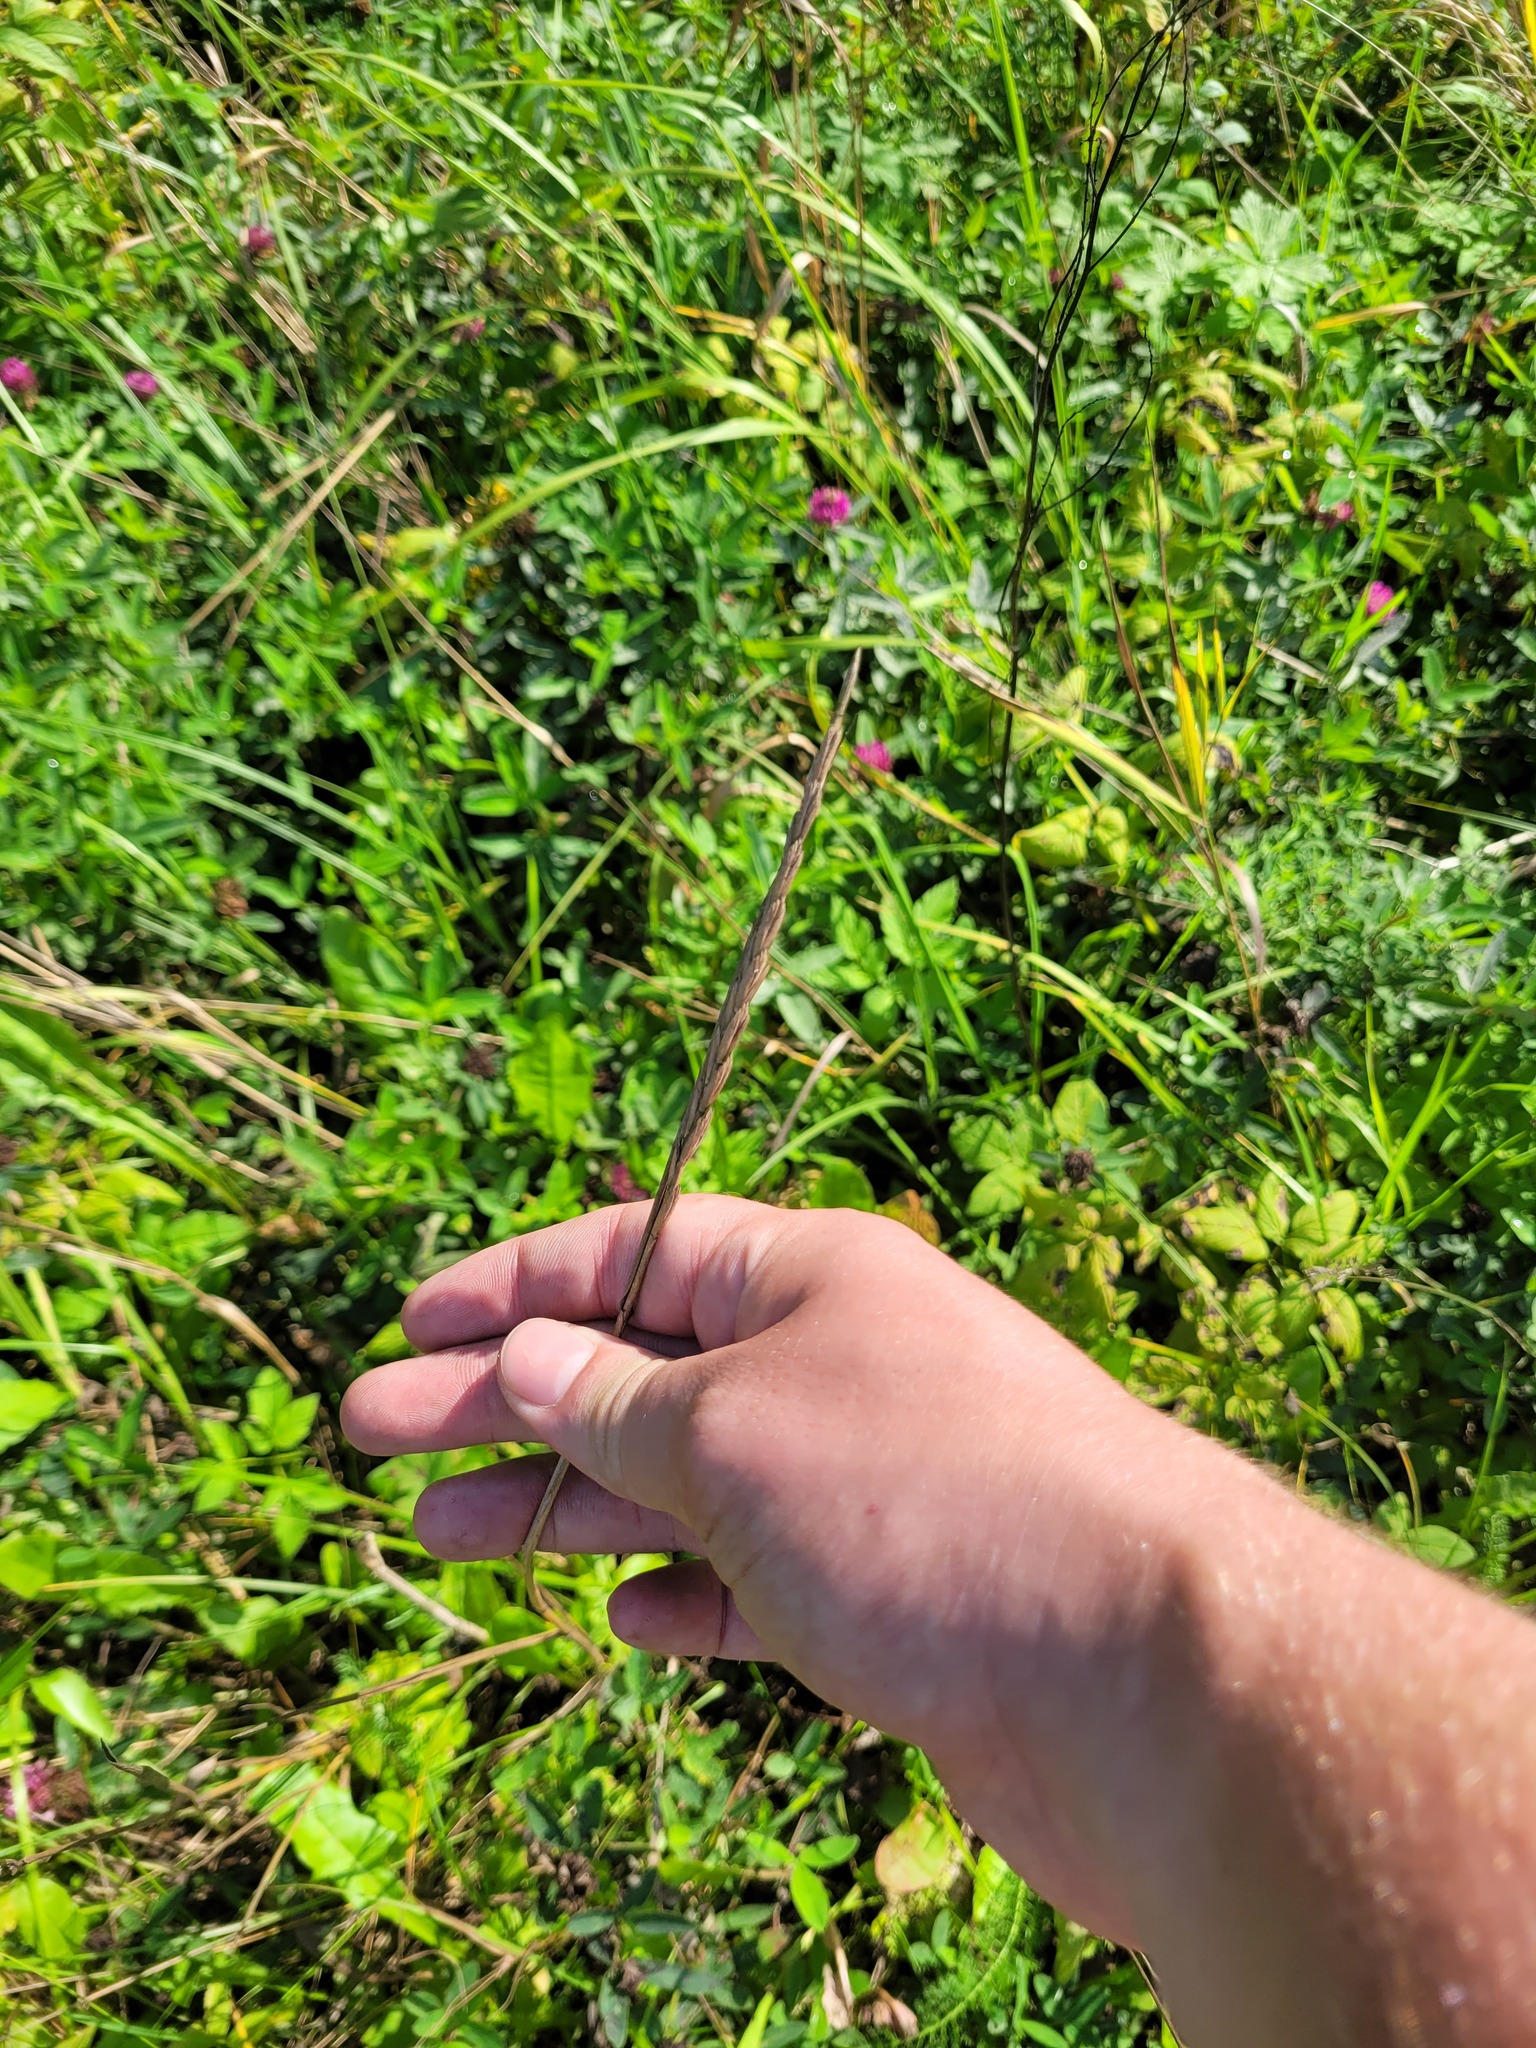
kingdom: Plantae
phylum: Tracheophyta
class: Liliopsida
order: Poales
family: Poaceae
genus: Elymus
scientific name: Elymus repens
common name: Quackgrass
